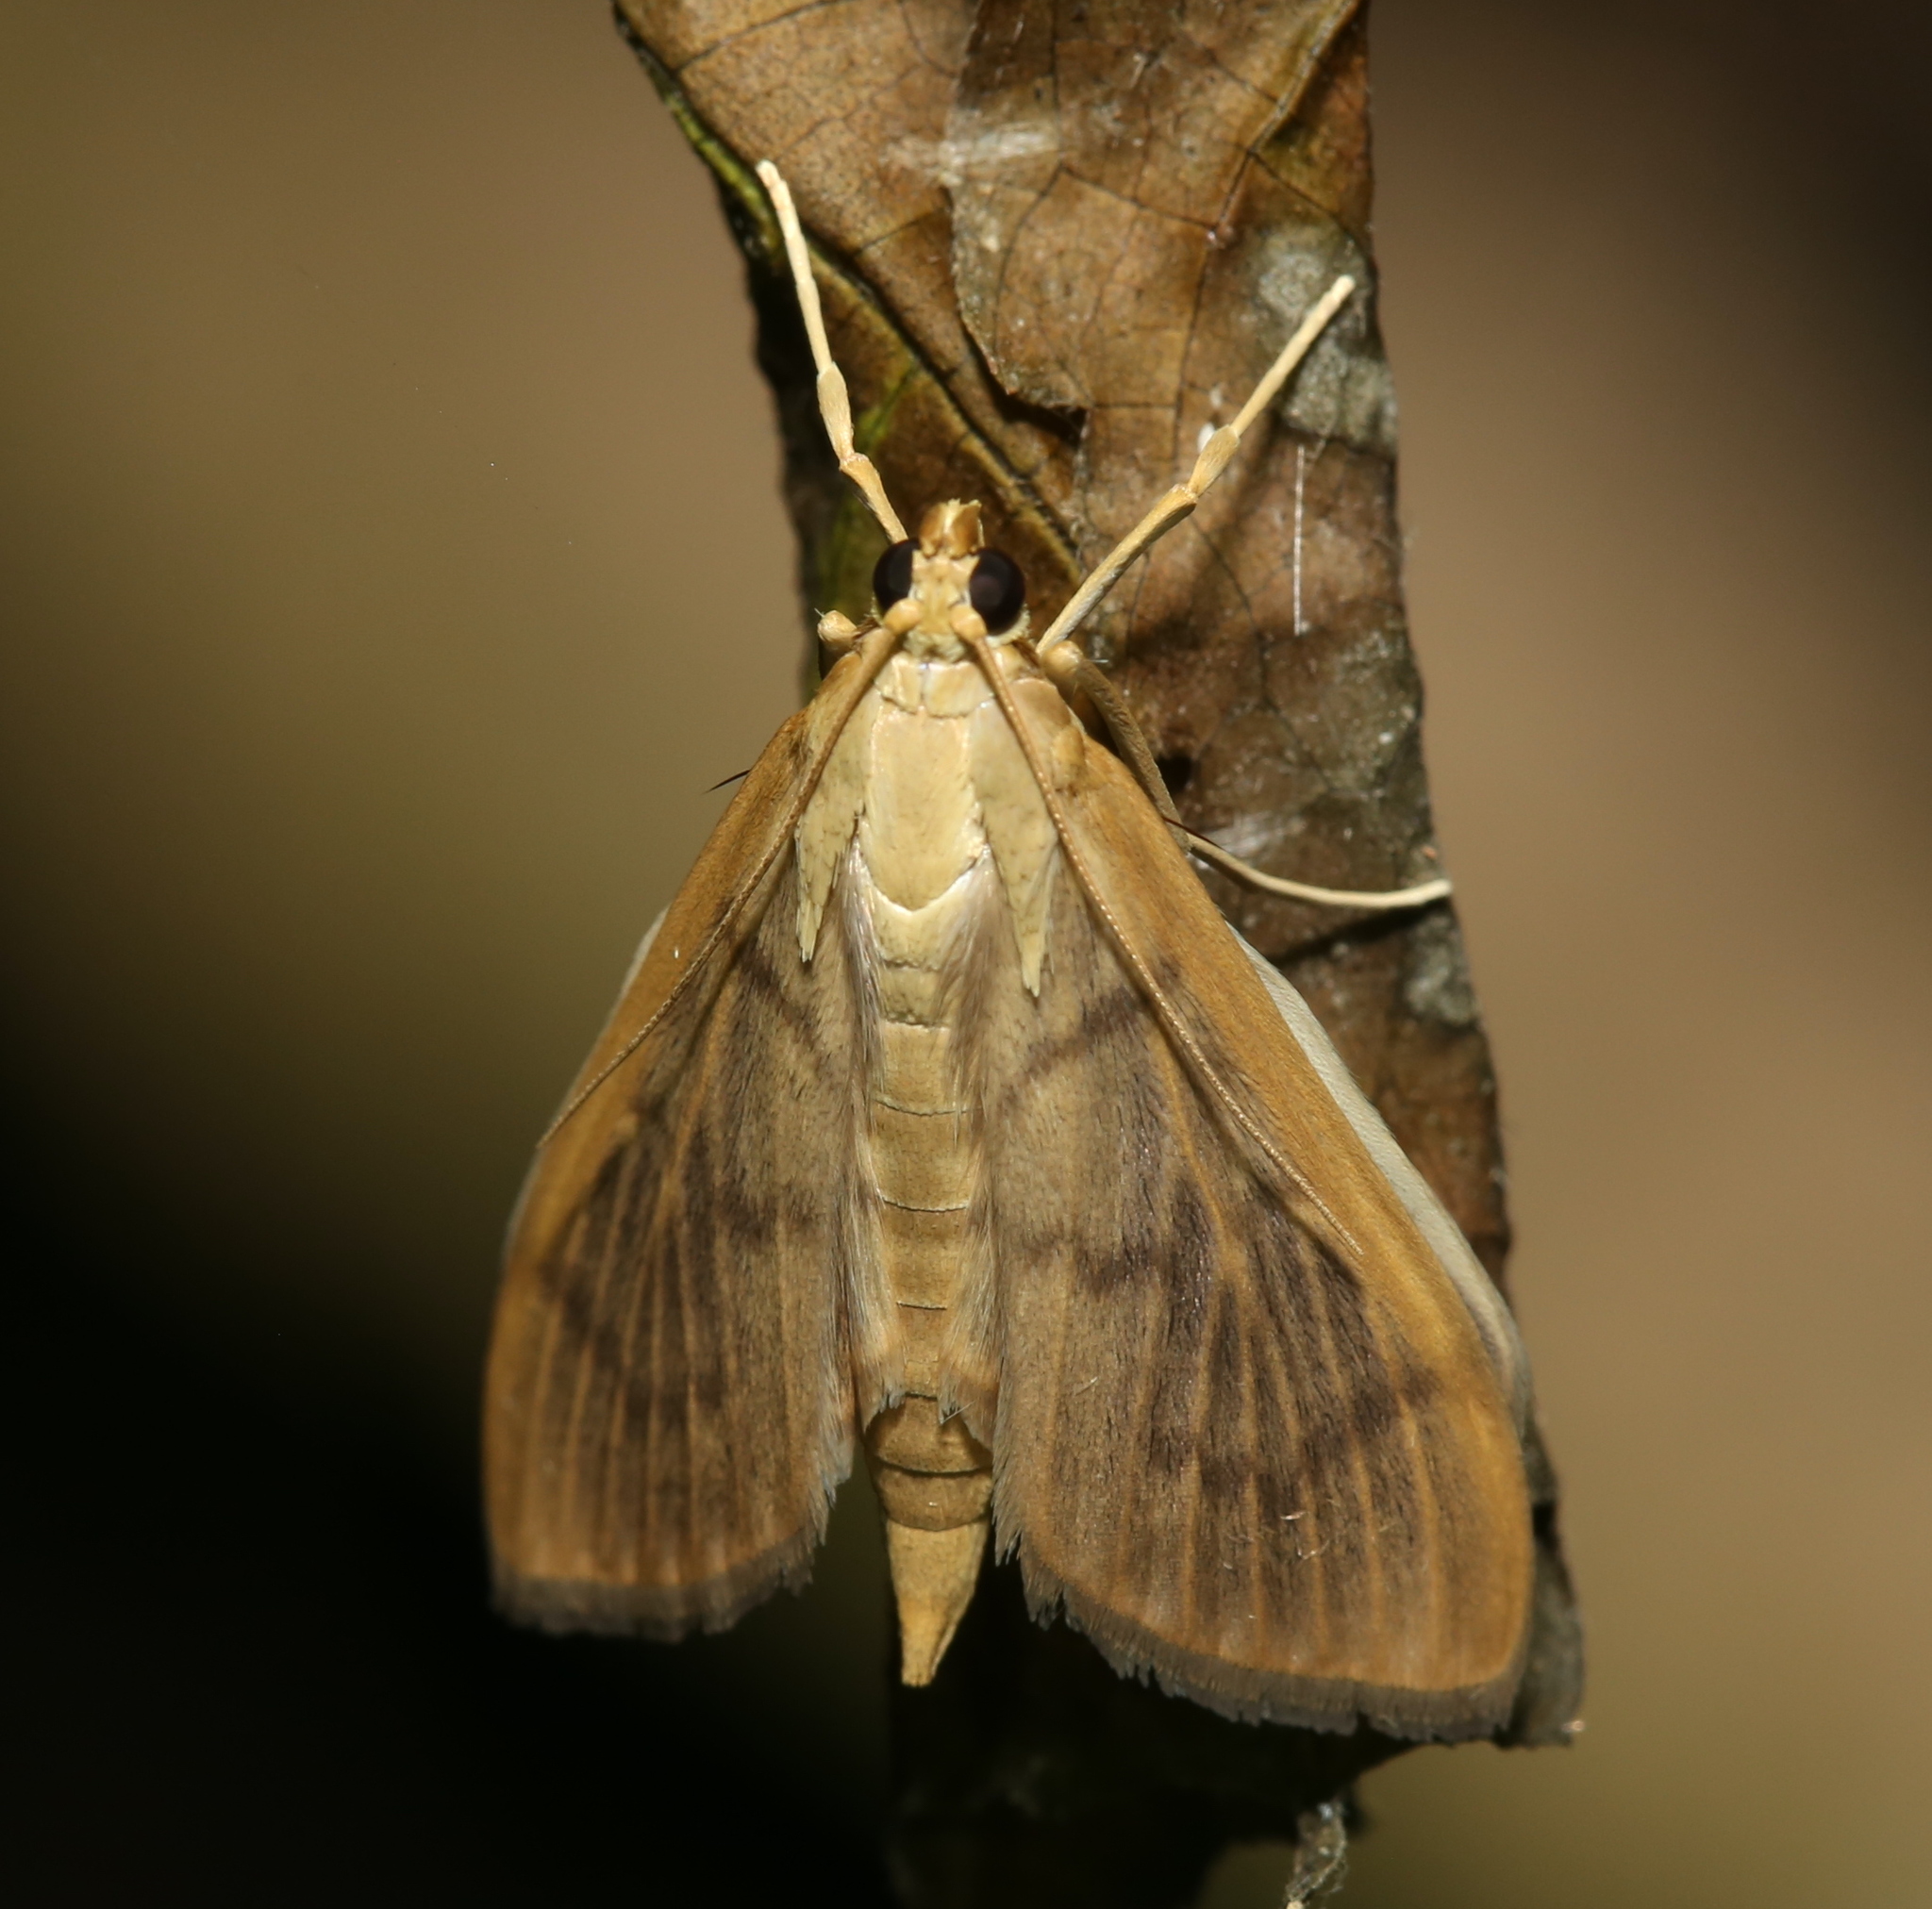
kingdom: Animalia
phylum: Arthropoda
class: Insecta
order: Lepidoptera
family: Crambidae
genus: Pleuroptya
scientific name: Pleuroptya silicalis
